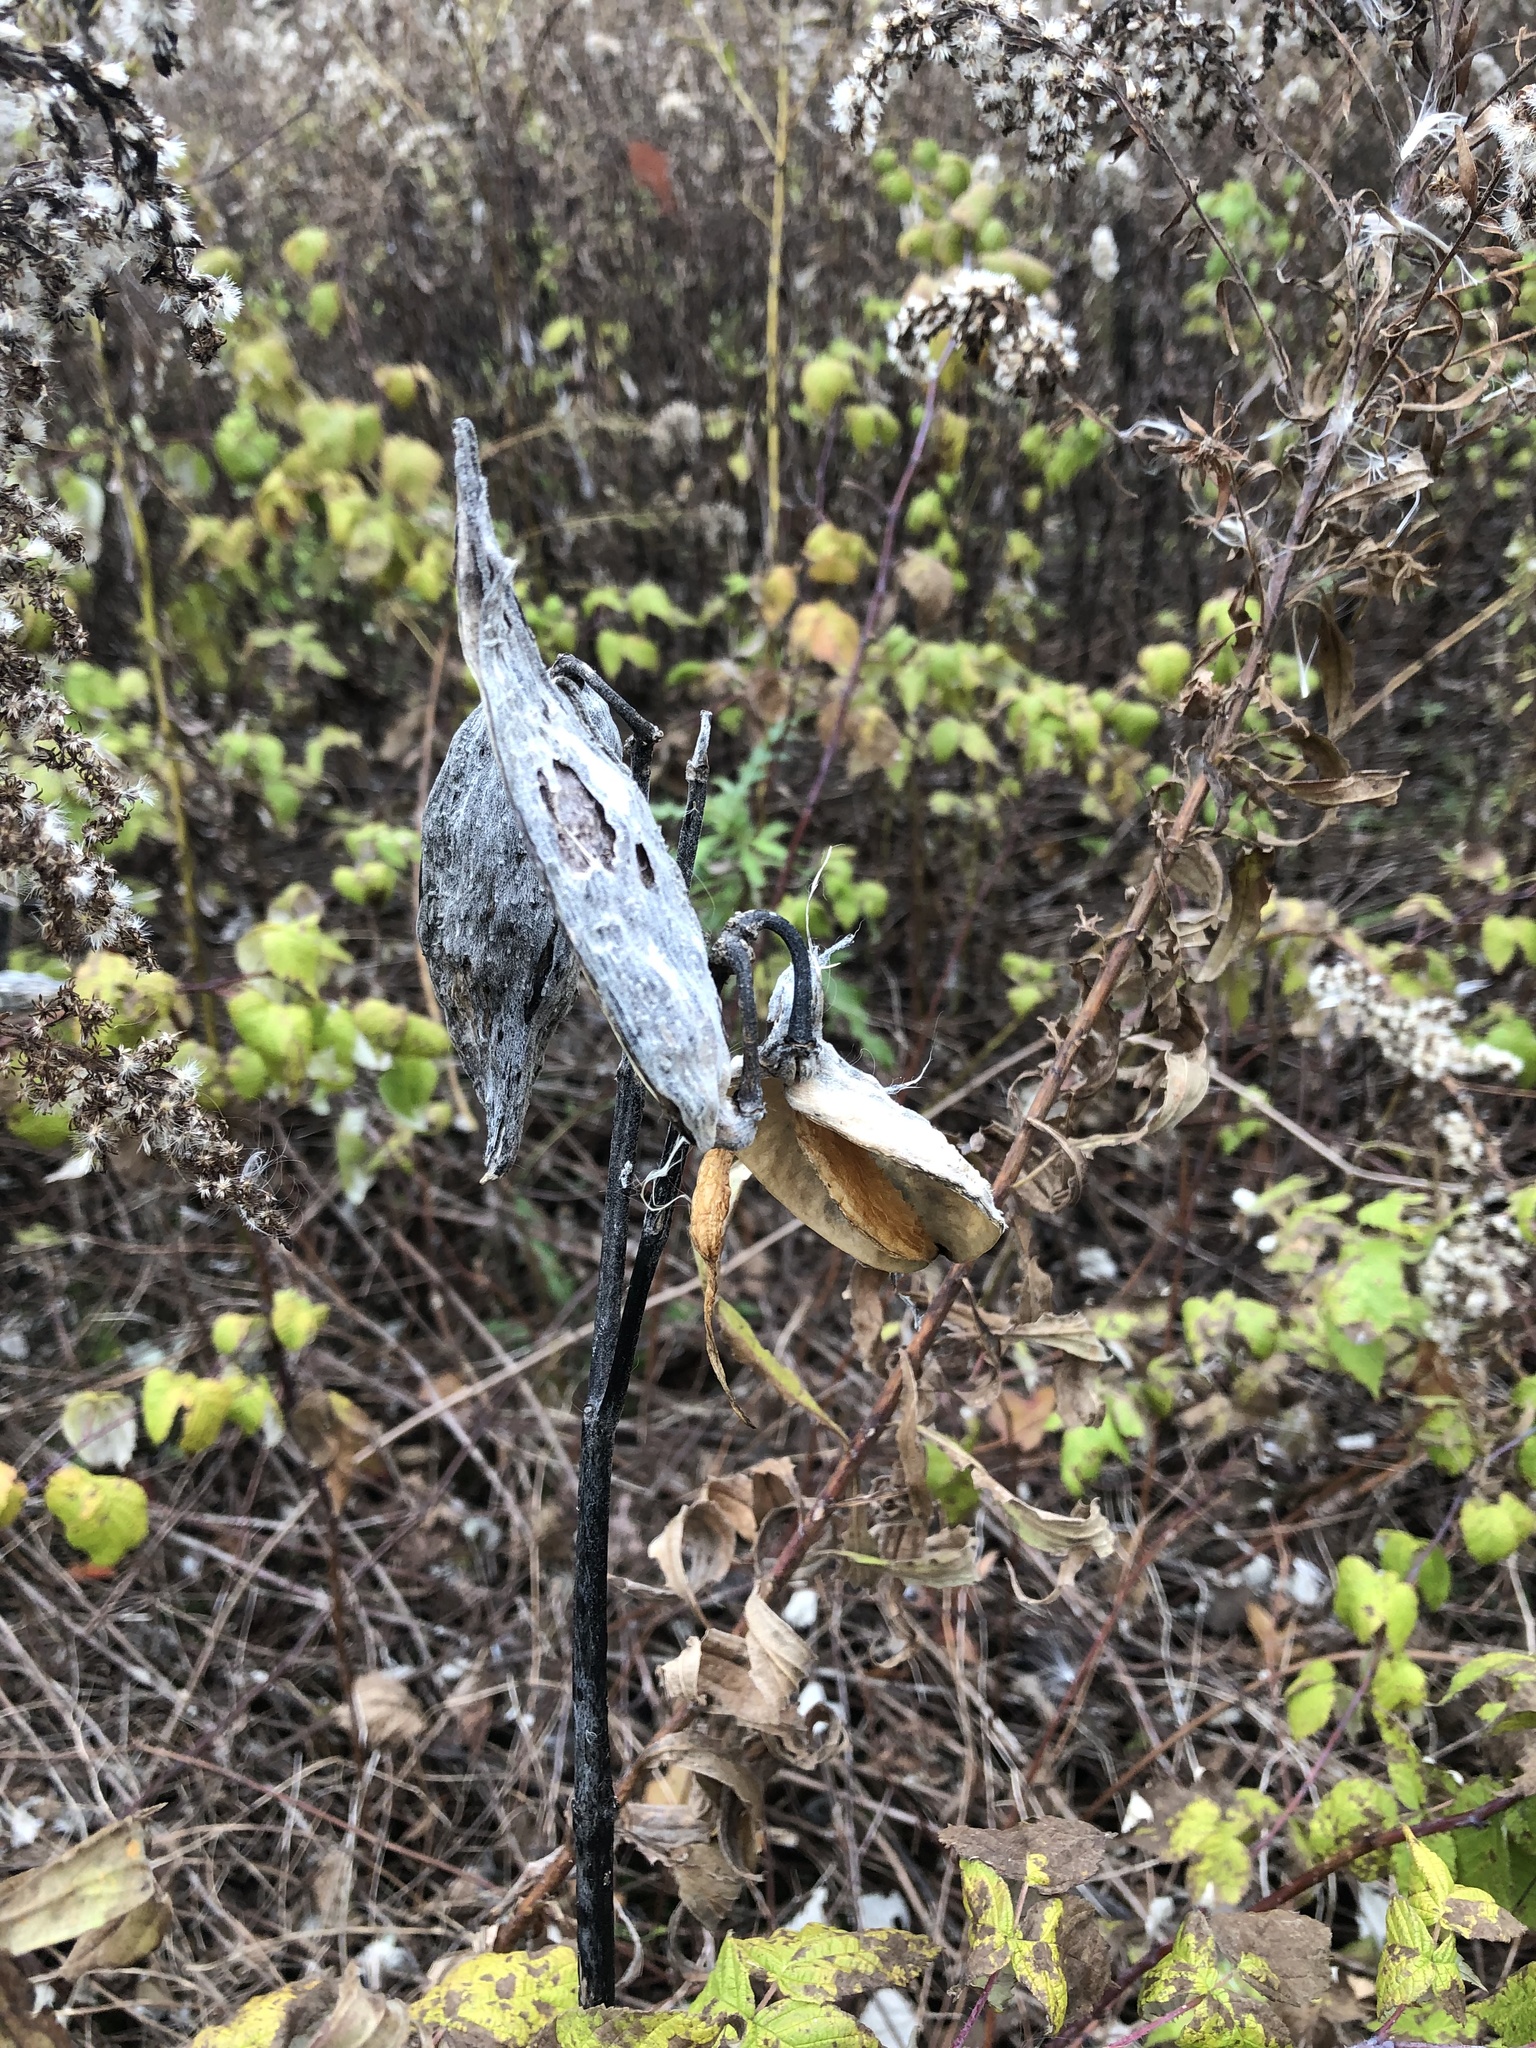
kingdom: Plantae
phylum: Tracheophyta
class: Magnoliopsida
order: Gentianales
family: Apocynaceae
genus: Asclepias
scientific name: Asclepias syriaca
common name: Common milkweed
